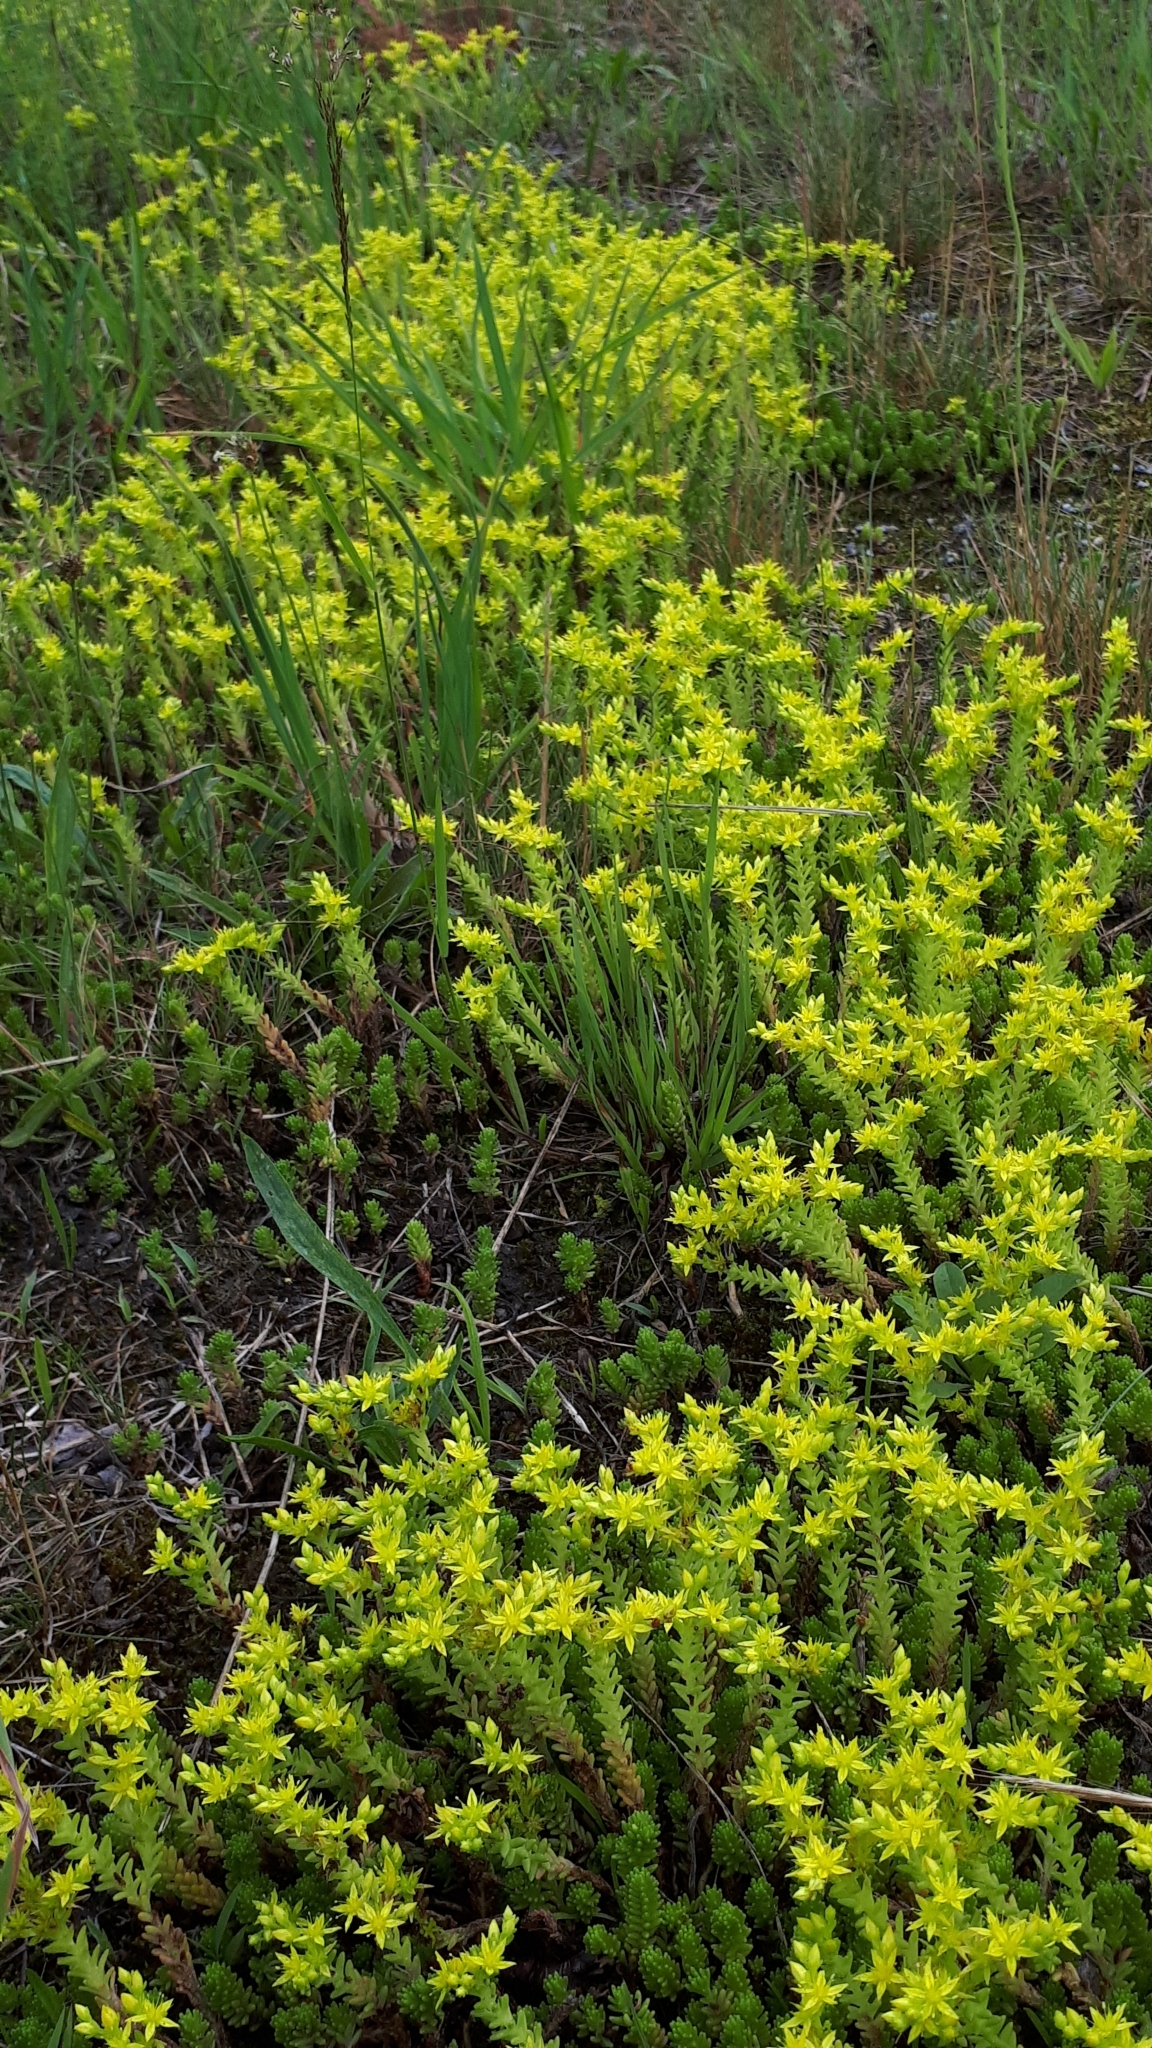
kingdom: Plantae
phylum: Tracheophyta
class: Magnoliopsida
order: Saxifragales
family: Crassulaceae
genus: Sedum
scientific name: Sedum sexangulare
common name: Tasteless stonecrop
